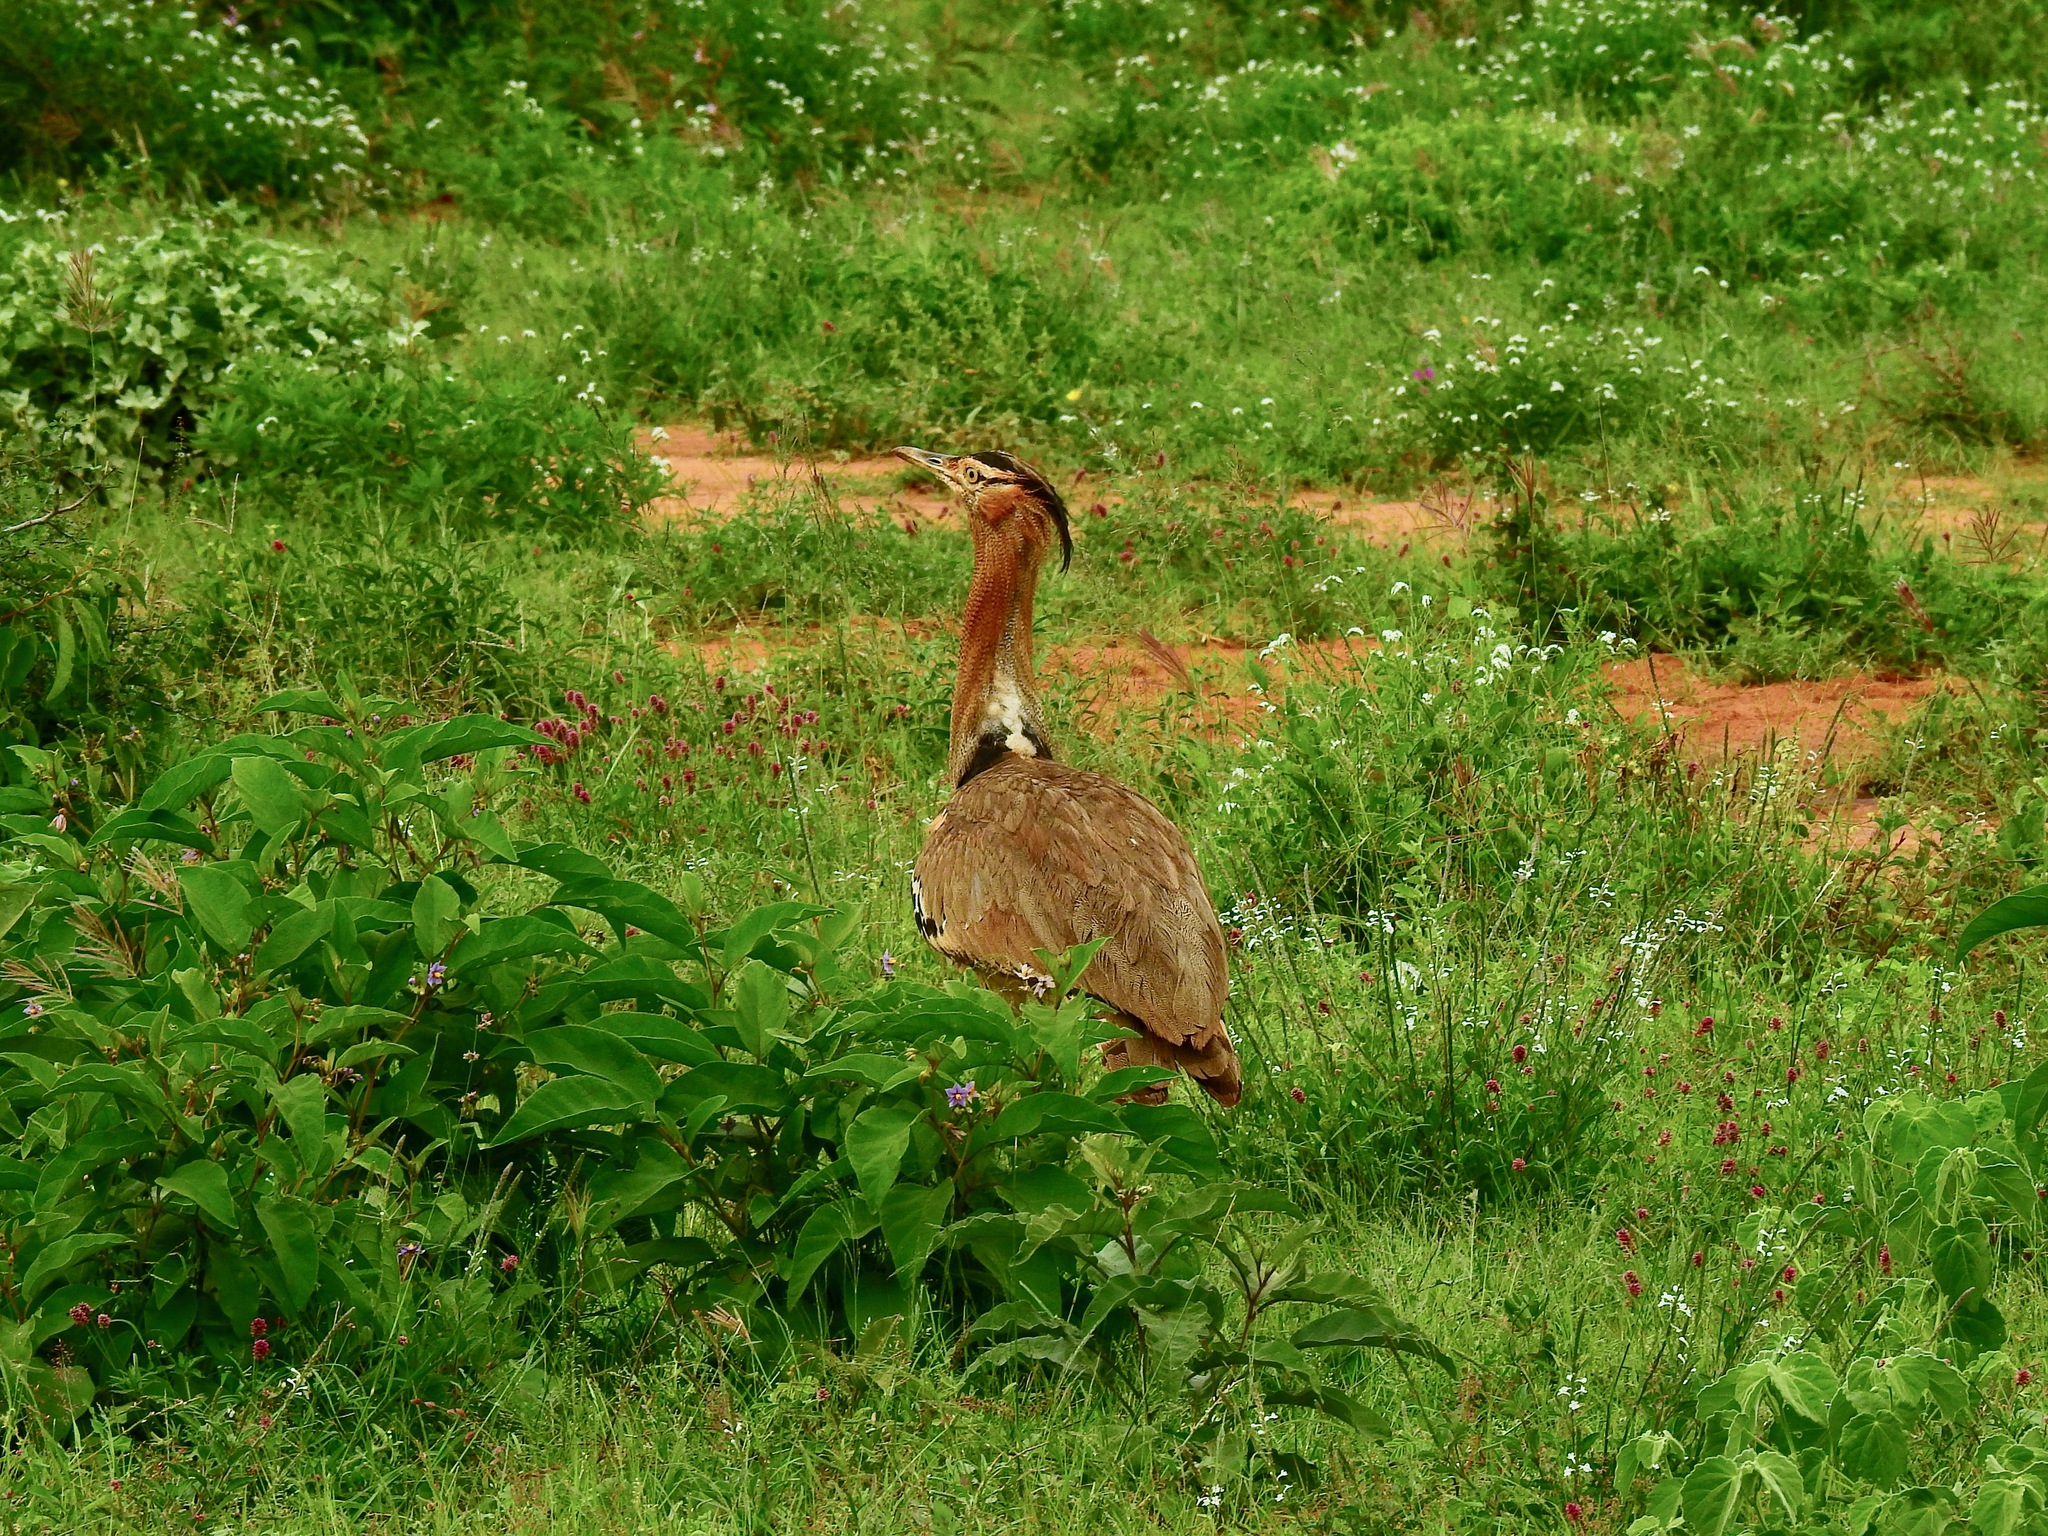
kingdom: Animalia
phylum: Chordata
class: Aves
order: Otidiformes
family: Otididae
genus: Ardeotis
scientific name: Ardeotis kori
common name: Kori bustard
